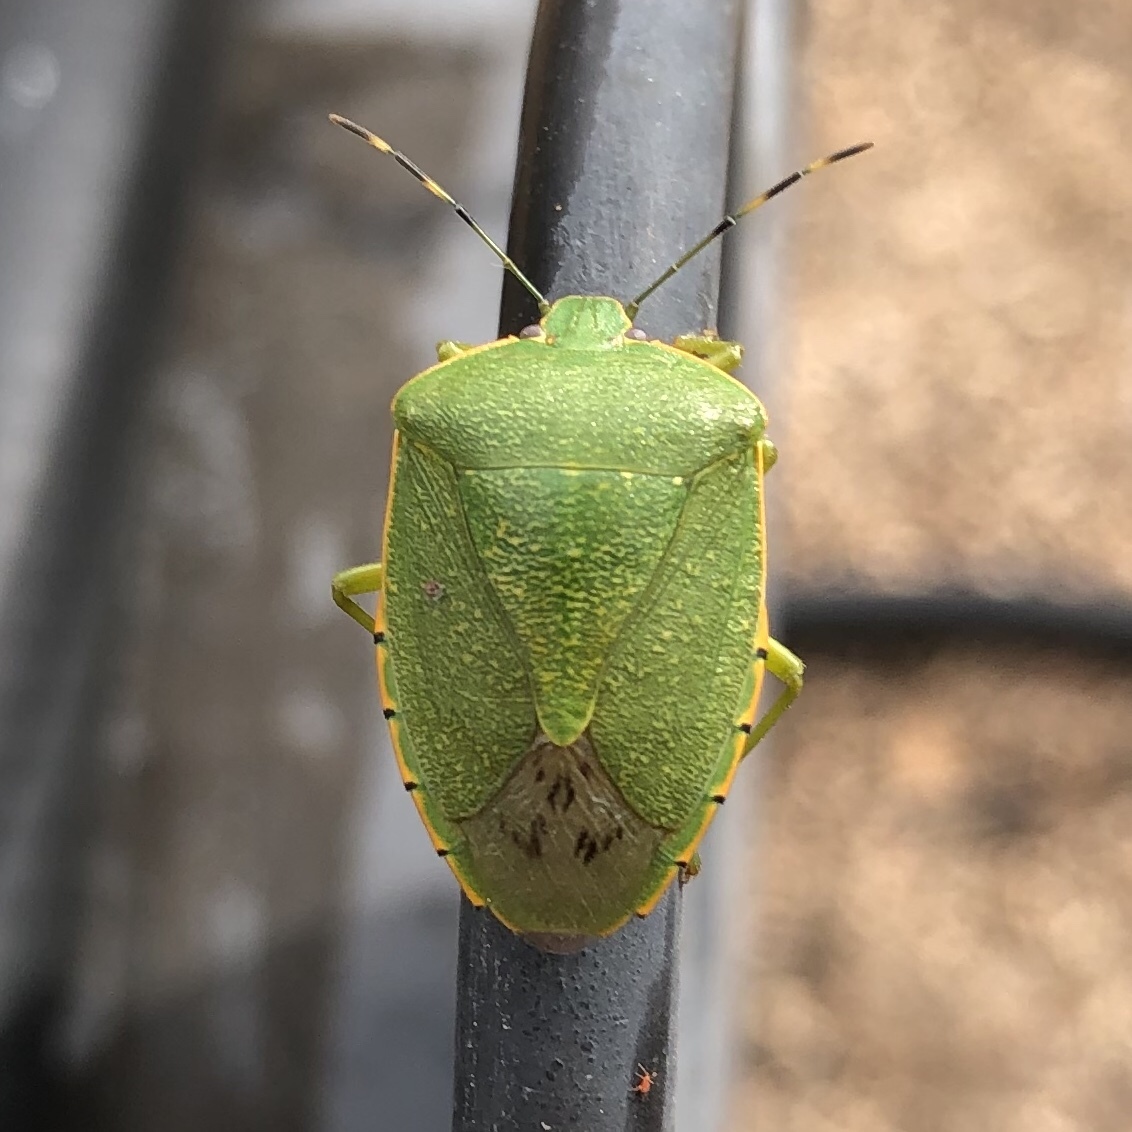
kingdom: Animalia
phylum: Arthropoda
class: Insecta
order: Hemiptera
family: Pentatomidae
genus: Chinavia
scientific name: Chinavia hilaris
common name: Green stink bug
